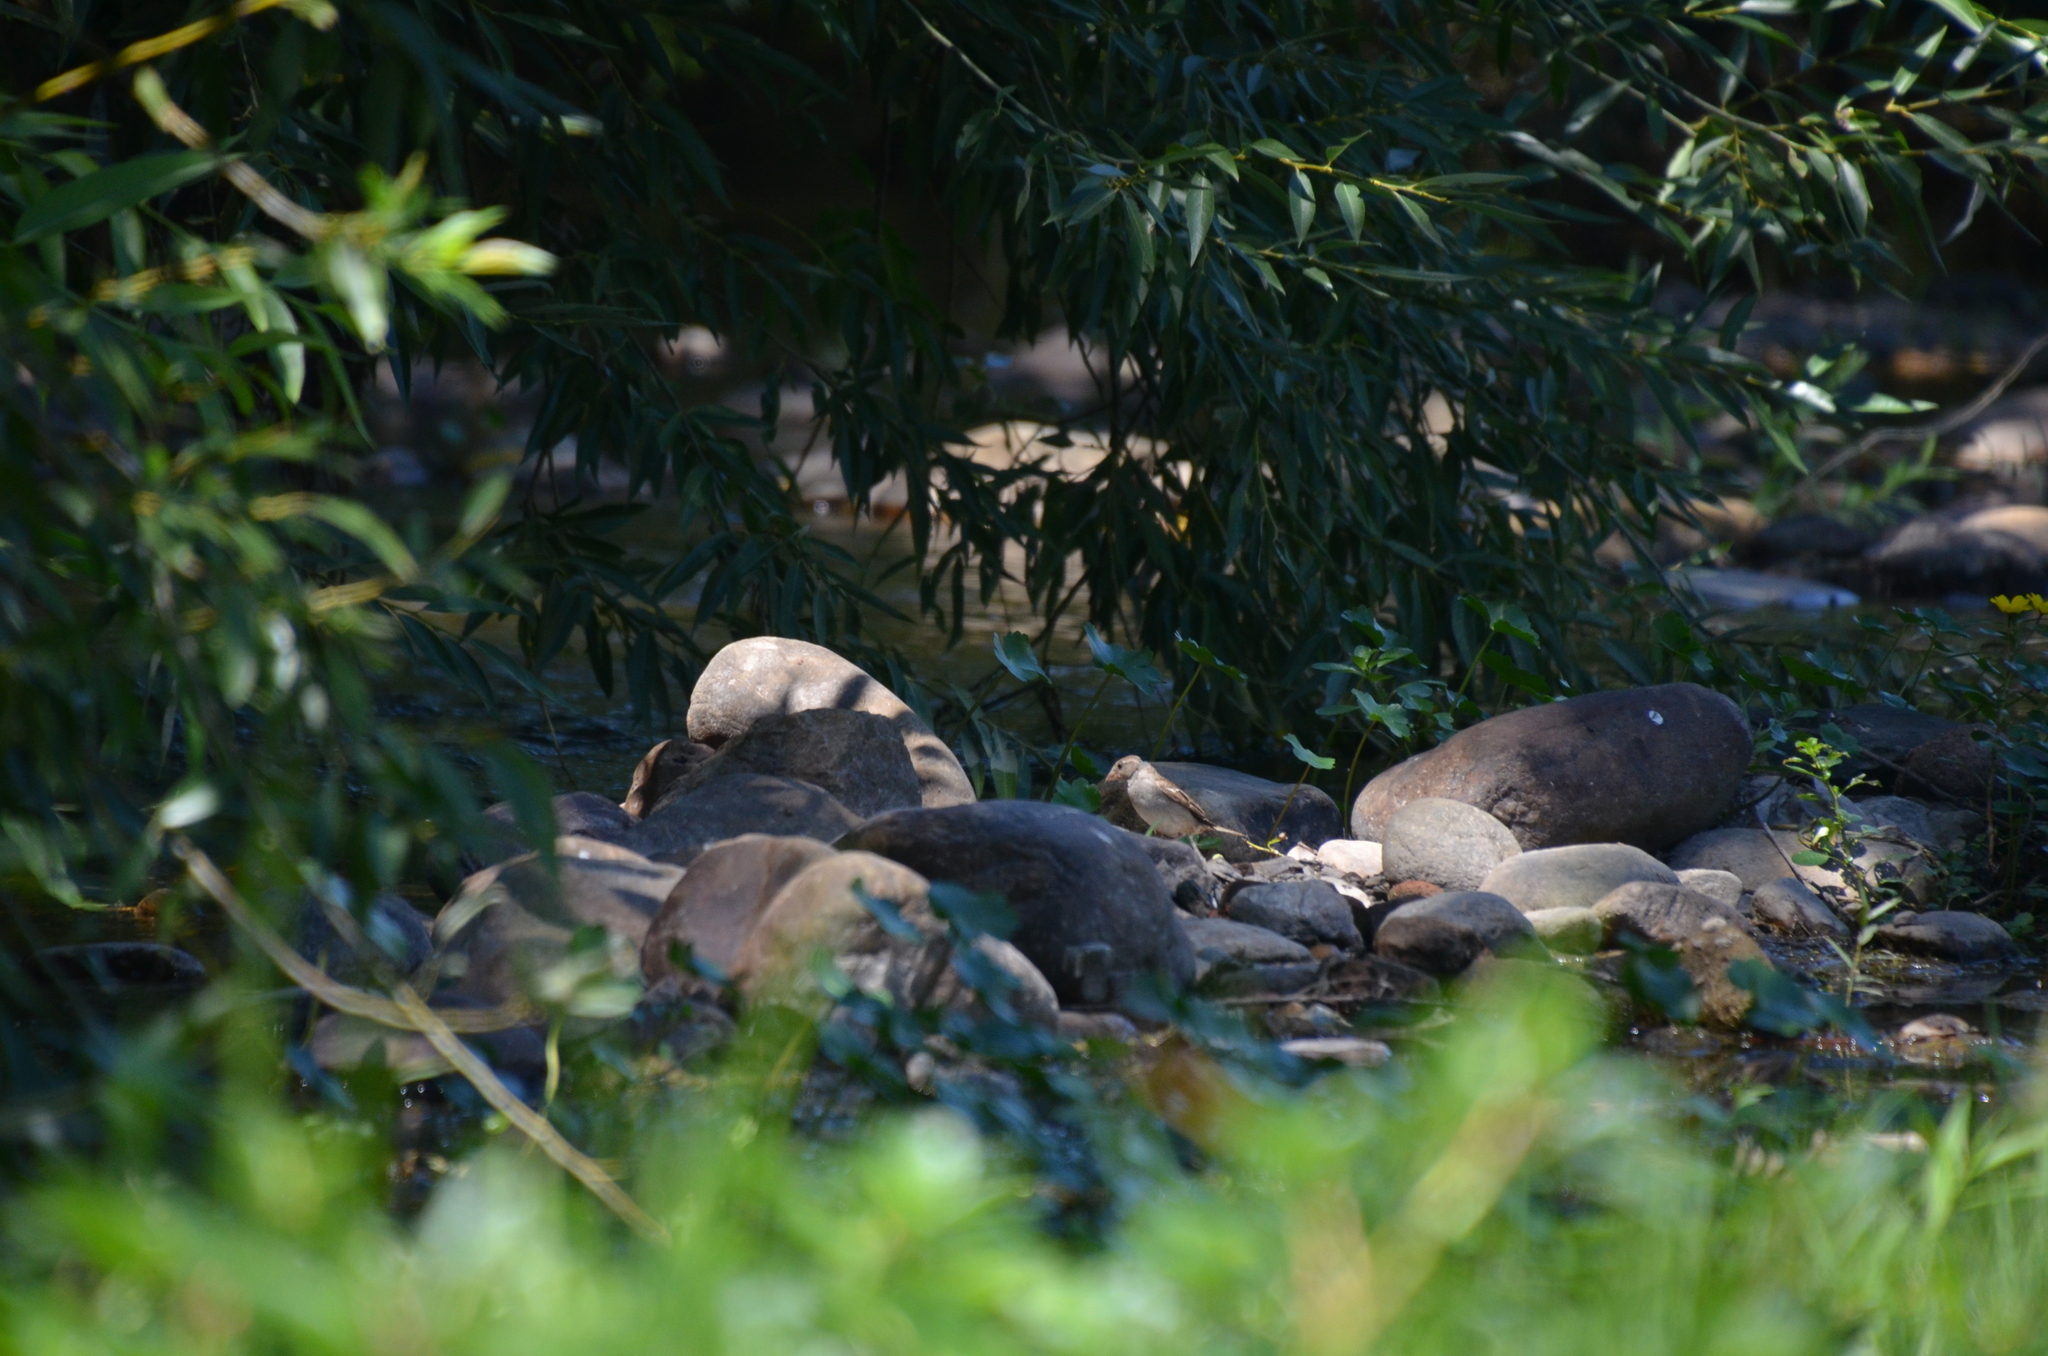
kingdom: Animalia
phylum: Chordata
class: Aves
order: Passeriformes
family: Passeridae
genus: Passer
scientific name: Passer domesticus
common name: House sparrow
